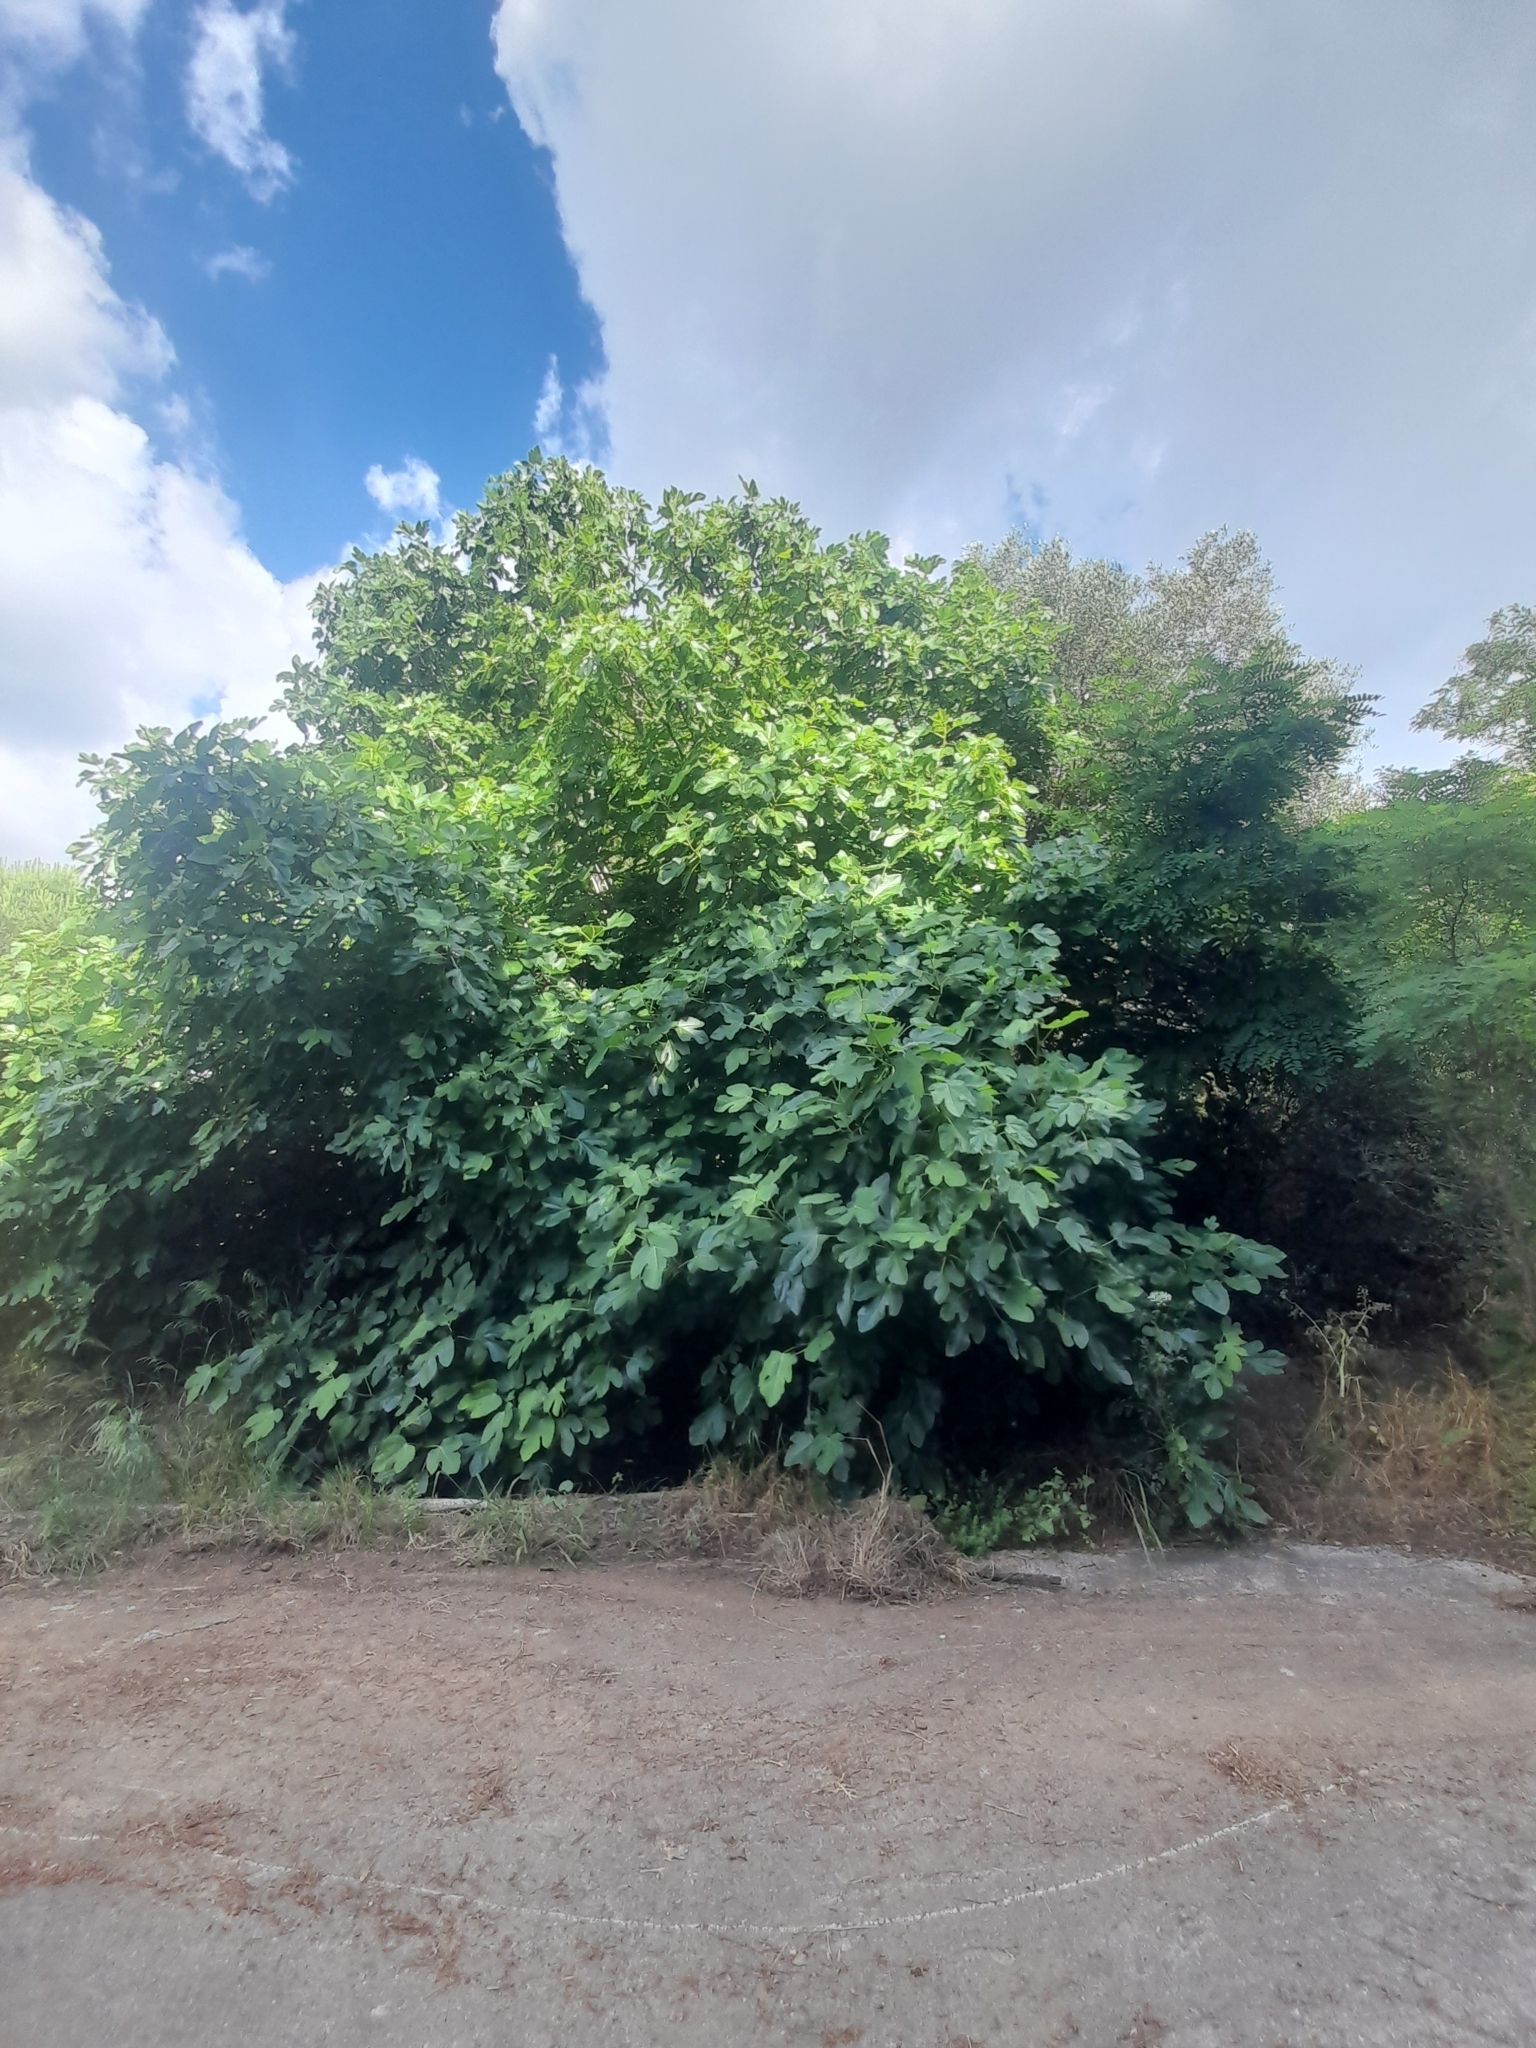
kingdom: Plantae
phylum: Tracheophyta
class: Magnoliopsida
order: Rosales
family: Moraceae
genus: Ficus
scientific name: Ficus carica
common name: Fig
